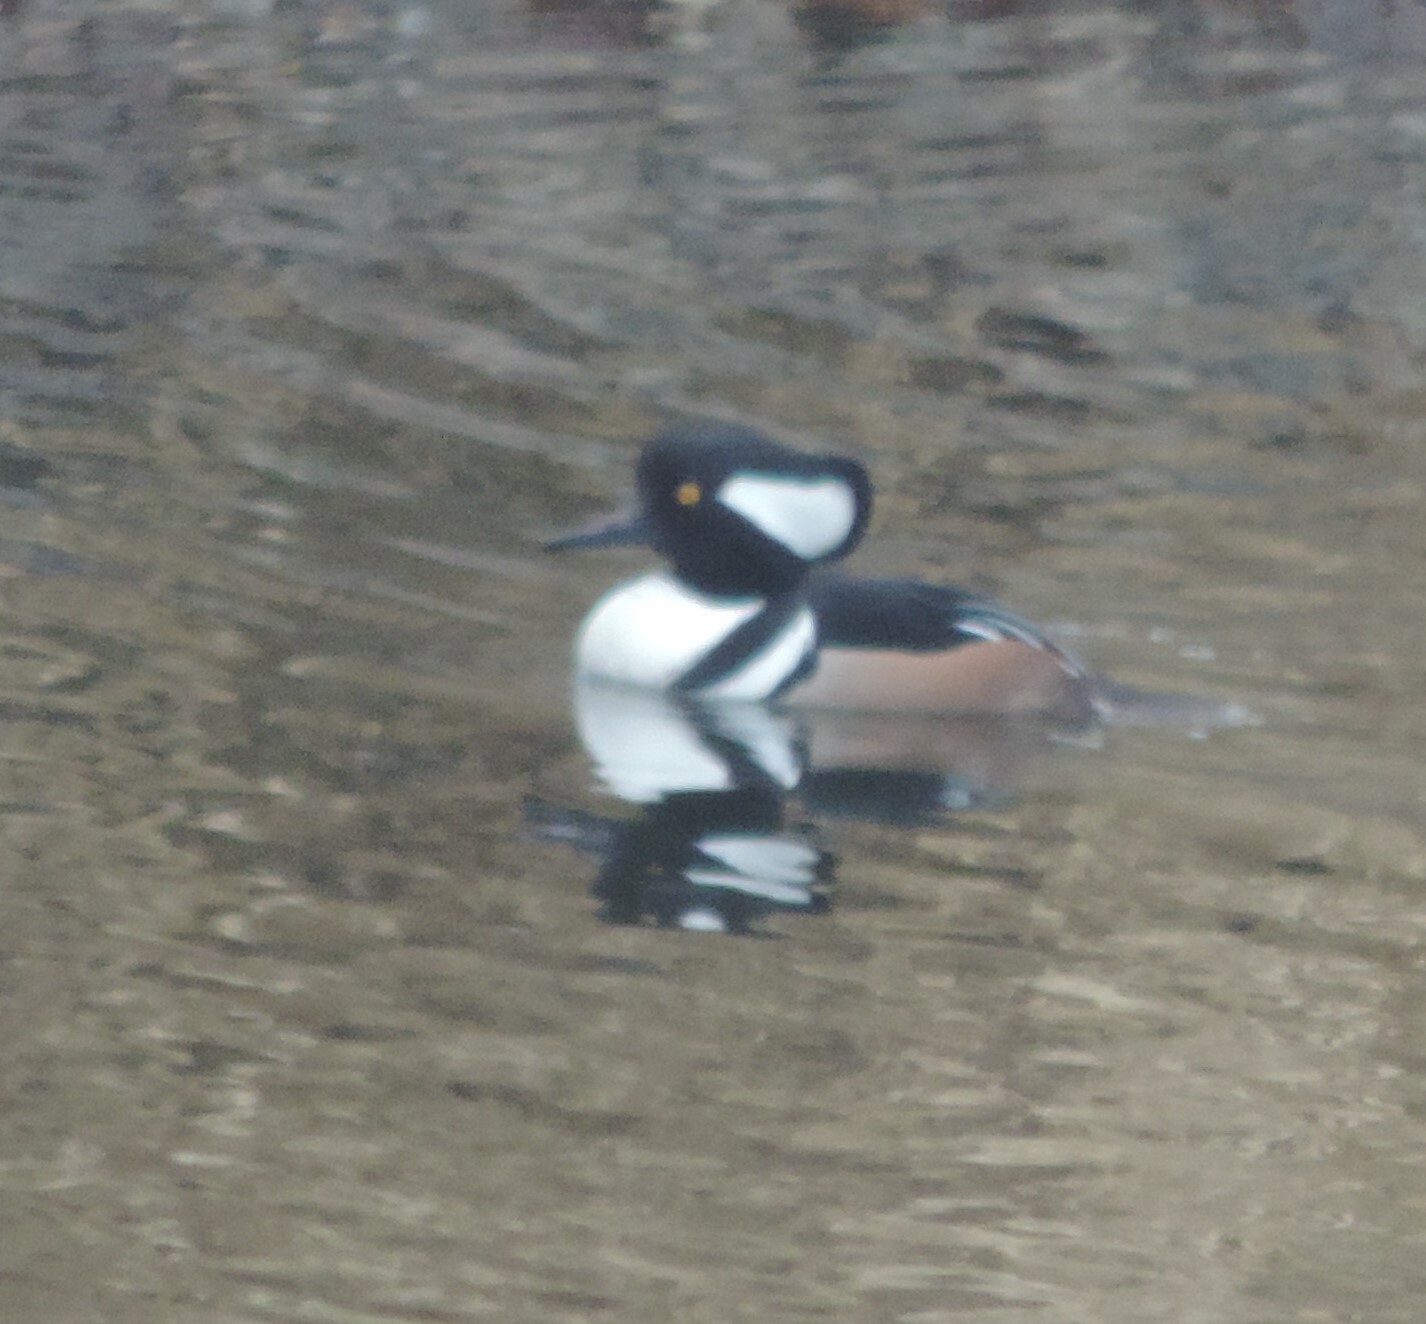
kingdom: Animalia
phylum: Chordata
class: Aves
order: Anseriformes
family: Anatidae
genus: Lophodytes
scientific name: Lophodytes cucullatus
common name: Hooded merganser
